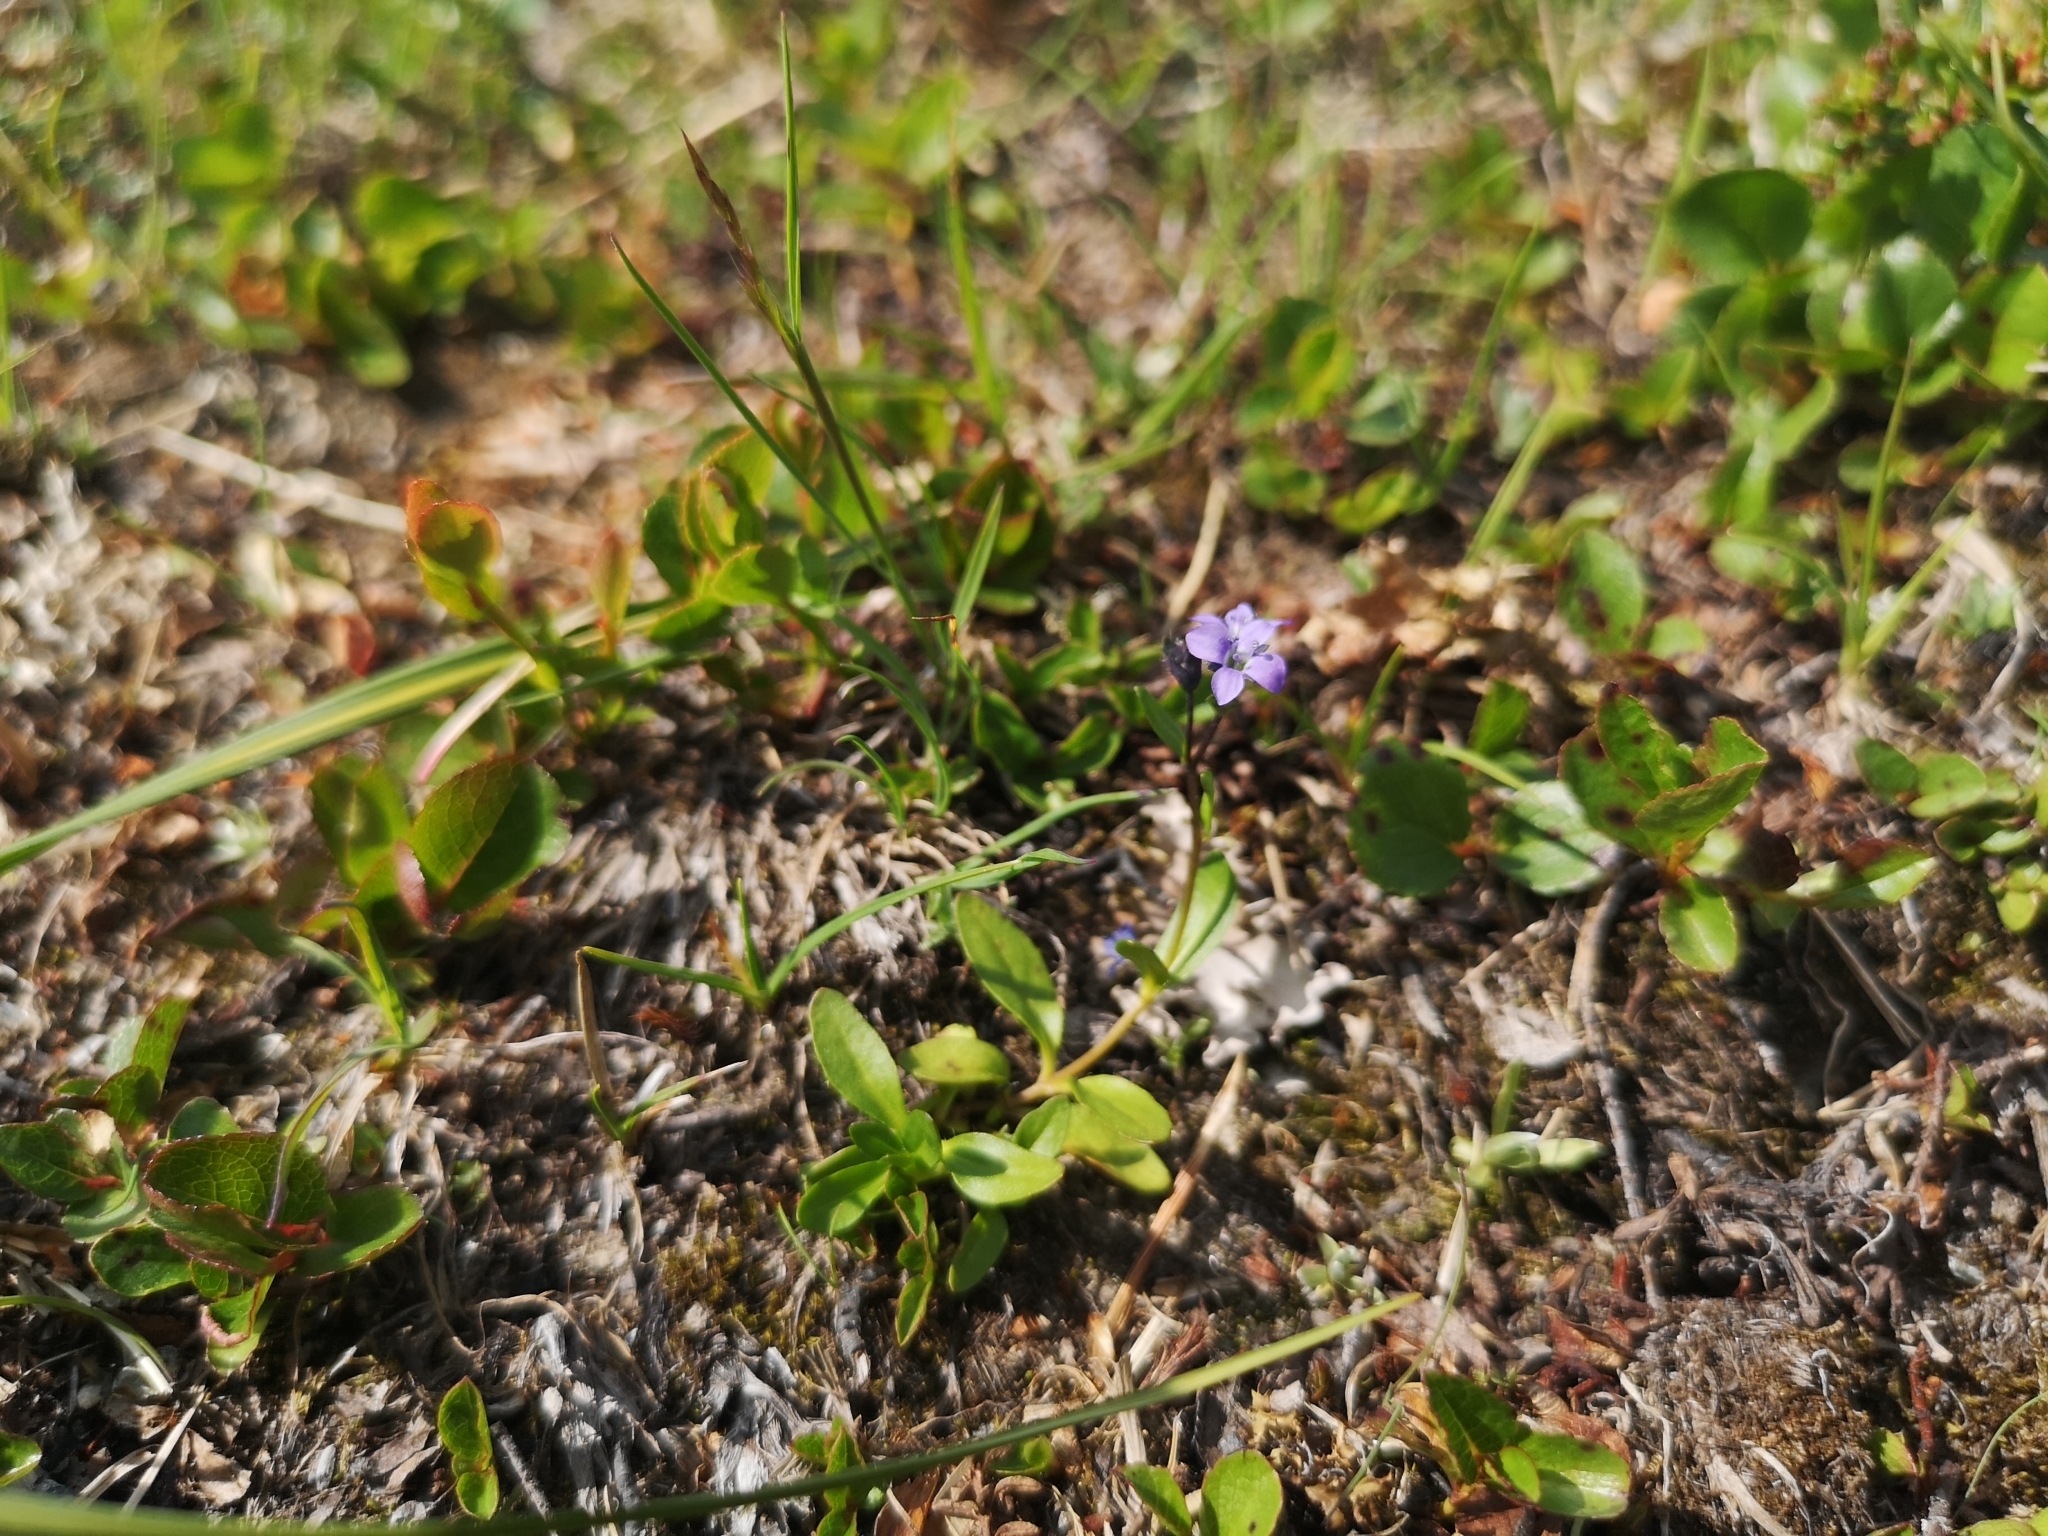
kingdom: Plantae
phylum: Tracheophyta
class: Magnoliopsida
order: Lamiales
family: Plantaginaceae
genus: Veronica
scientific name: Veronica alpina
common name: Alpine speedwell
